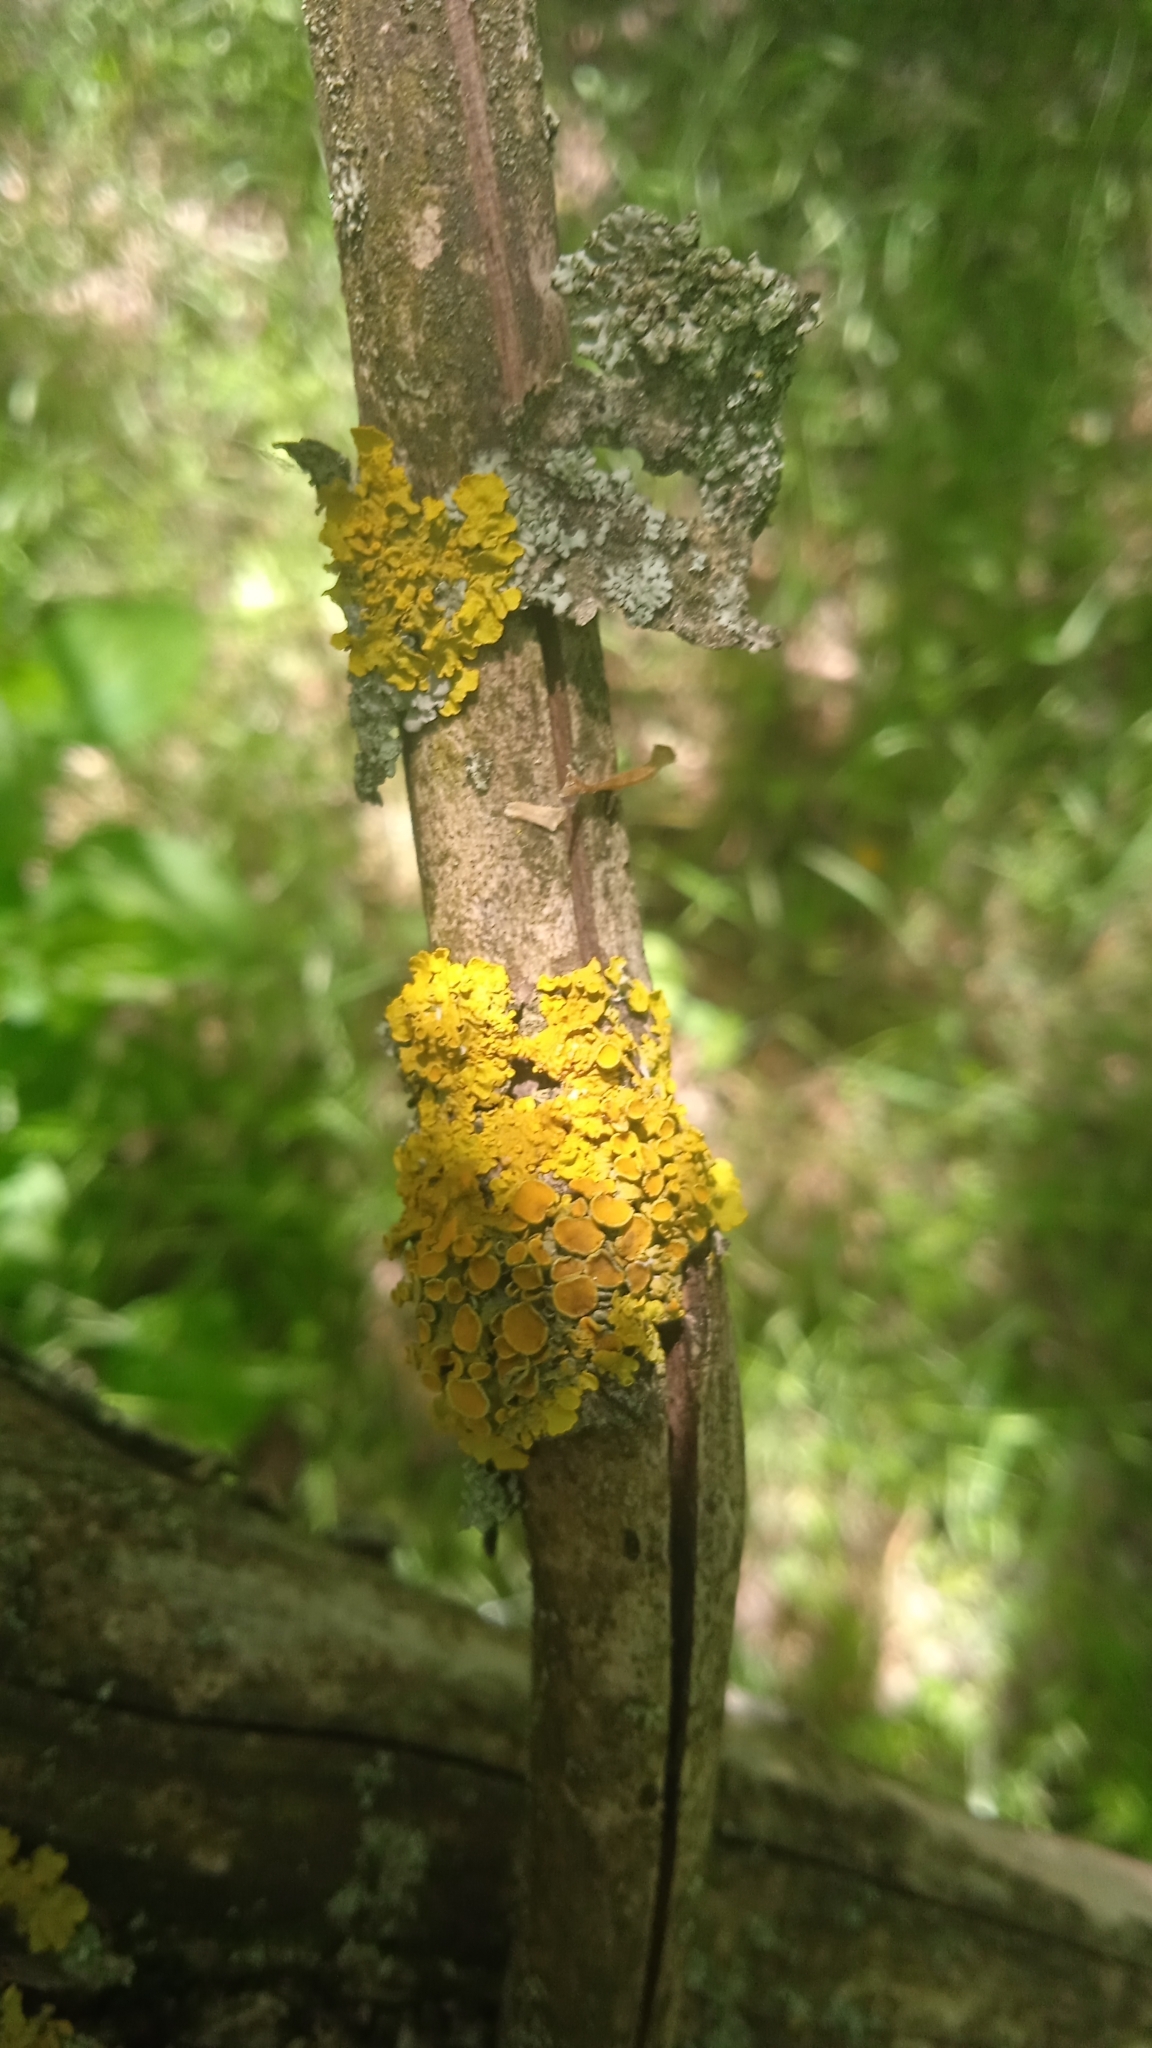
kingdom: Fungi
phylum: Ascomycota
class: Lecanoromycetes
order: Teloschistales
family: Teloschistaceae
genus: Xanthoria
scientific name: Xanthoria parietina
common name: Common orange lichen
